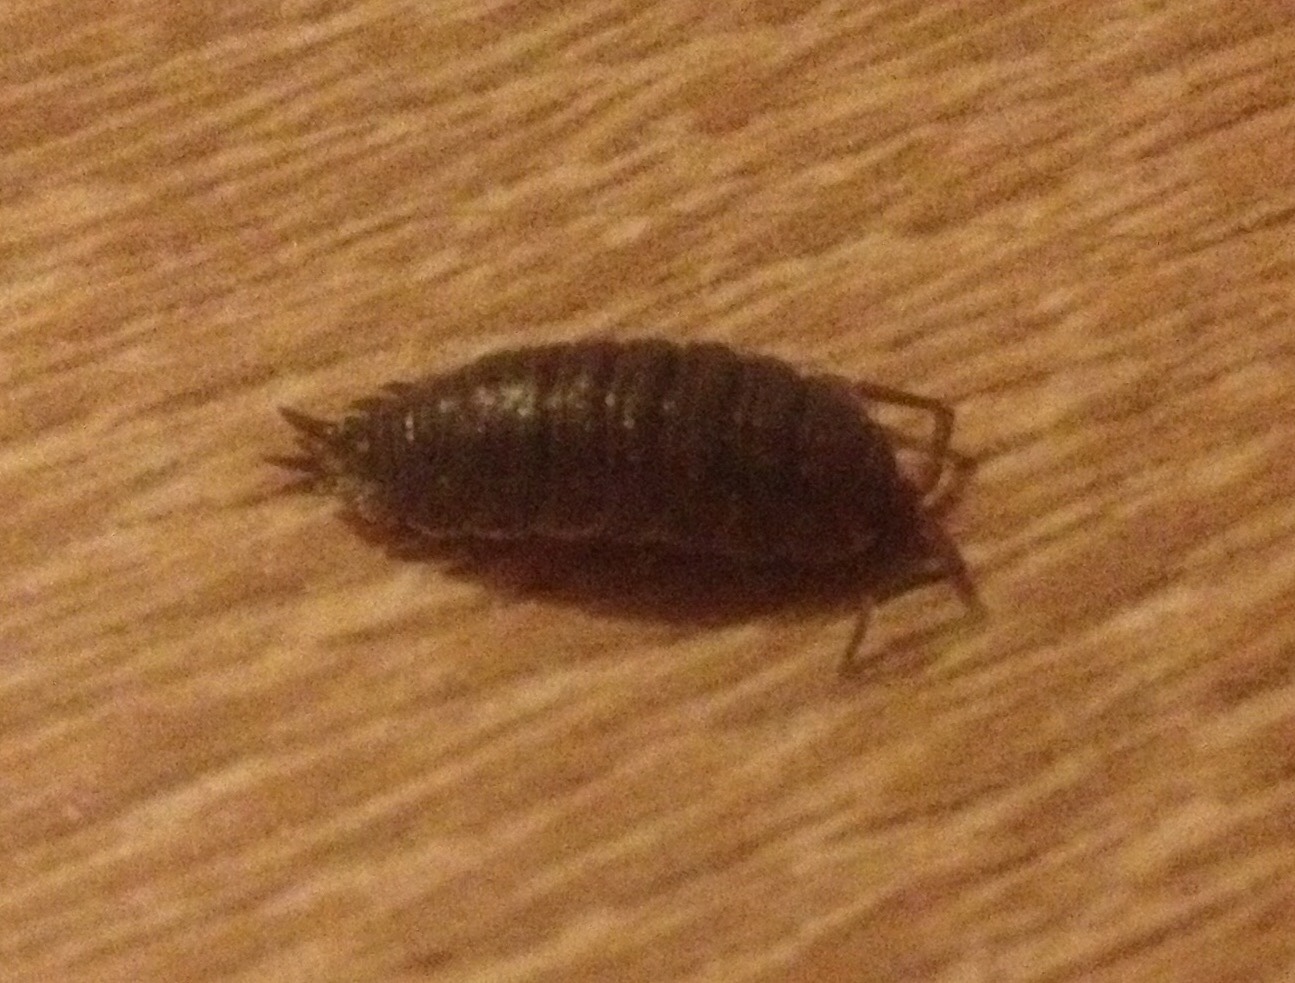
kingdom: Animalia
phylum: Arthropoda
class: Malacostraca
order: Isopoda
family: Porcellionidae
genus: Porcellio
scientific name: Porcellio scaber
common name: Common rough woodlouse
